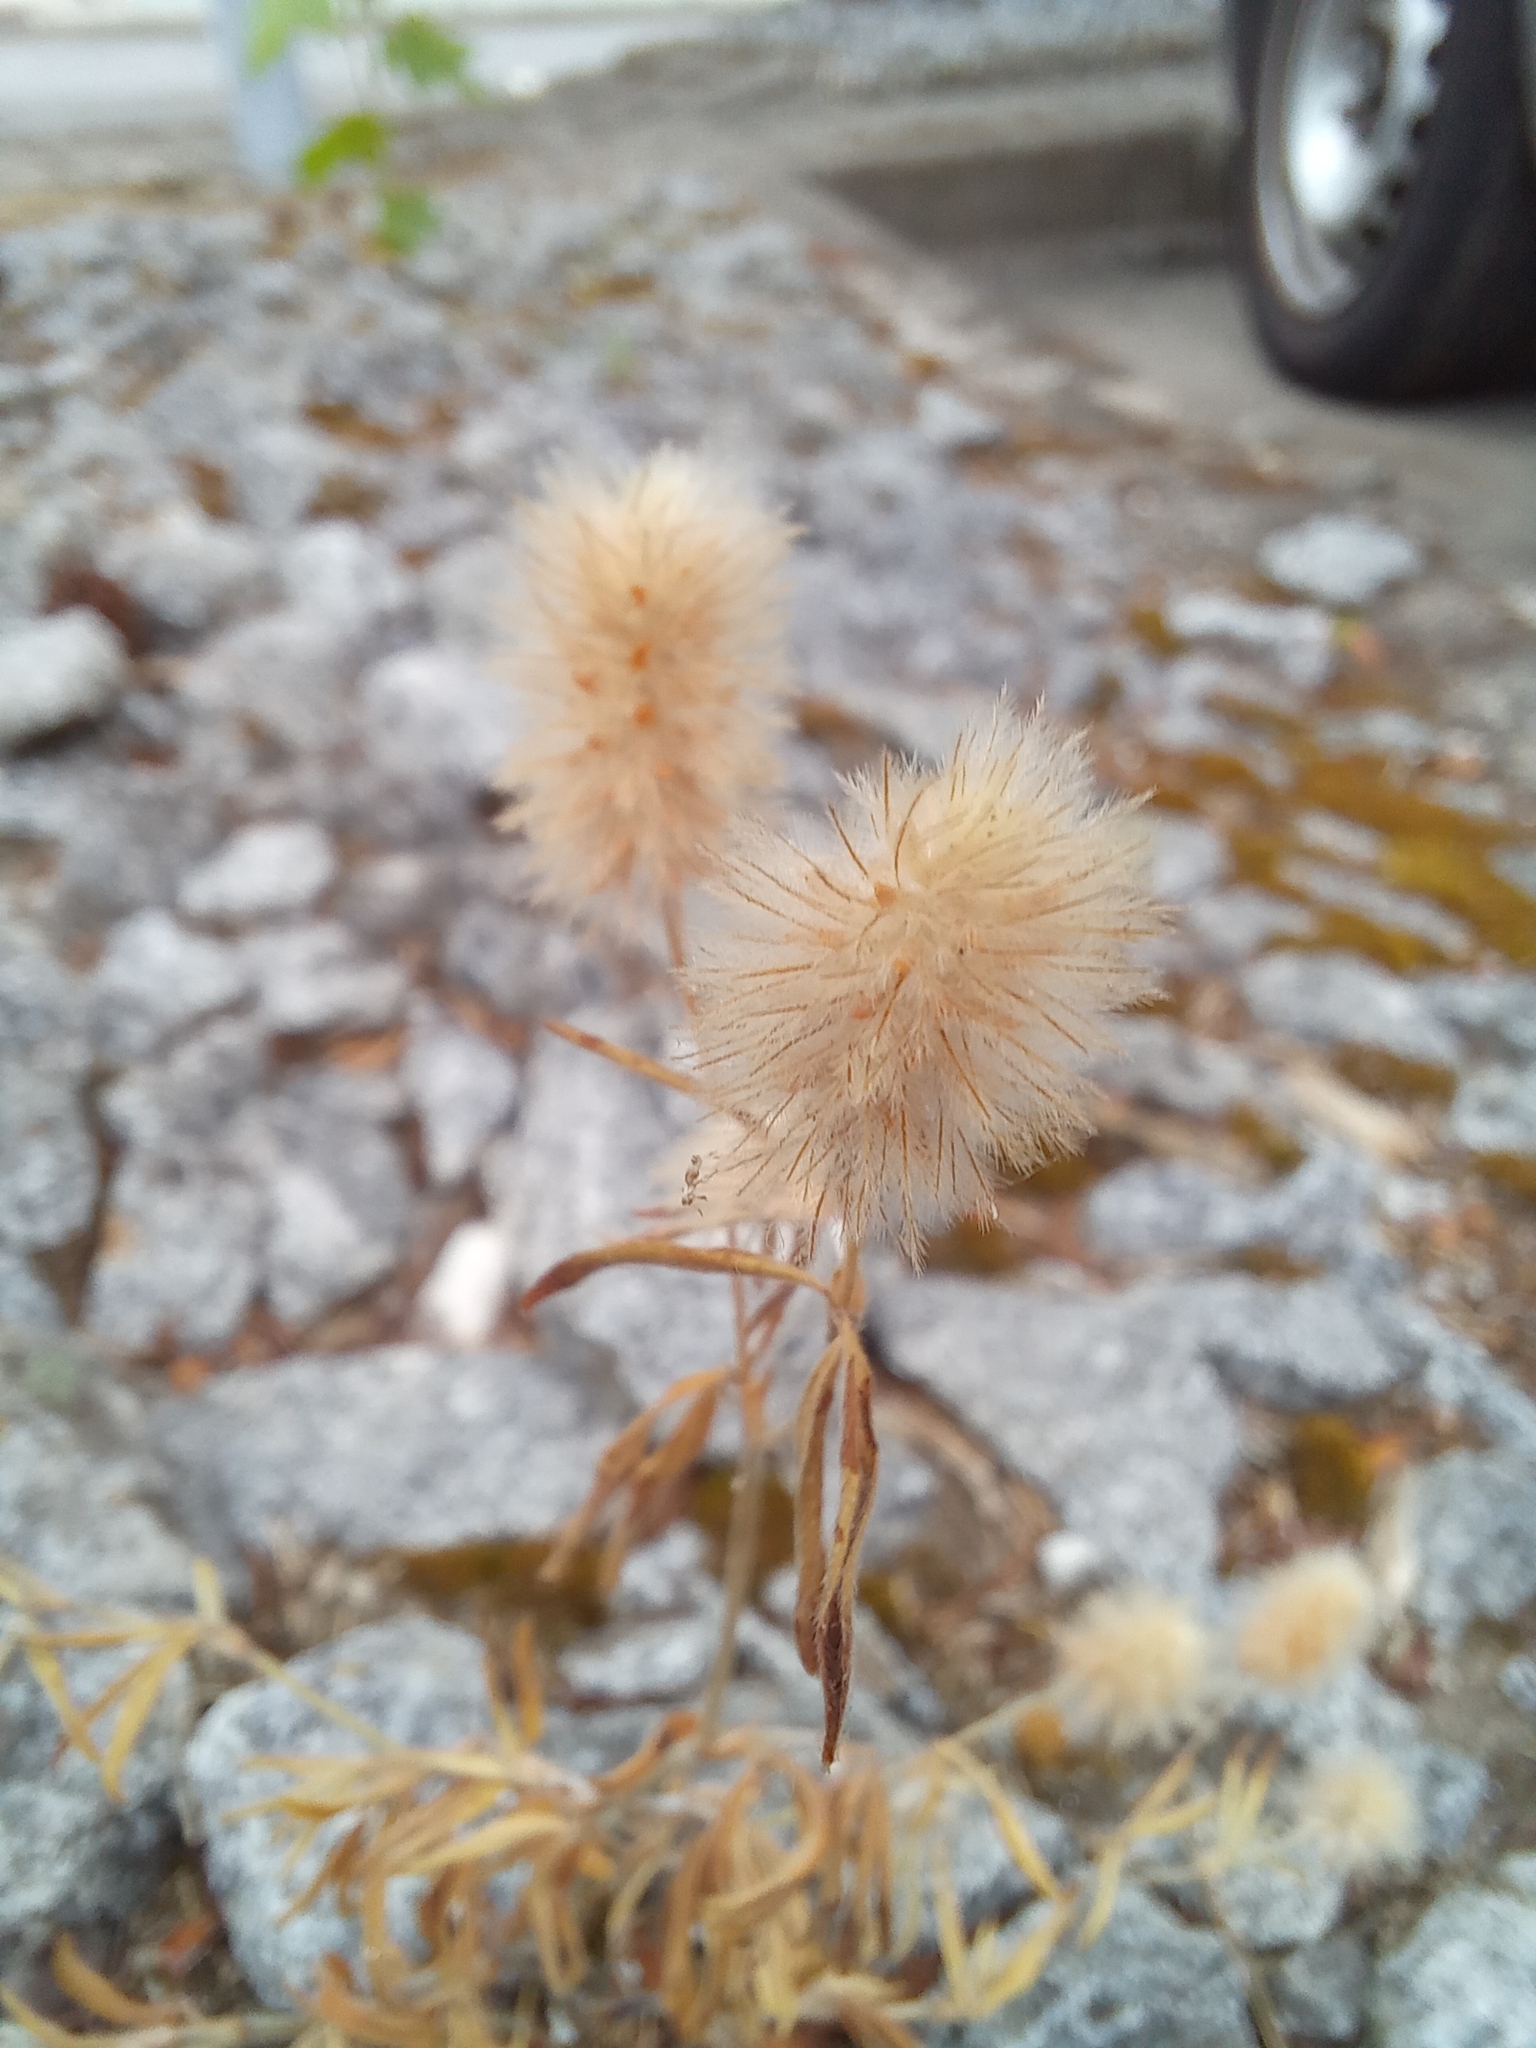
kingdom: Plantae
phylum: Tracheophyta
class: Magnoliopsida
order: Fabales
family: Fabaceae
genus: Trifolium
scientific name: Trifolium arvense
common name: Hare's-foot clover
